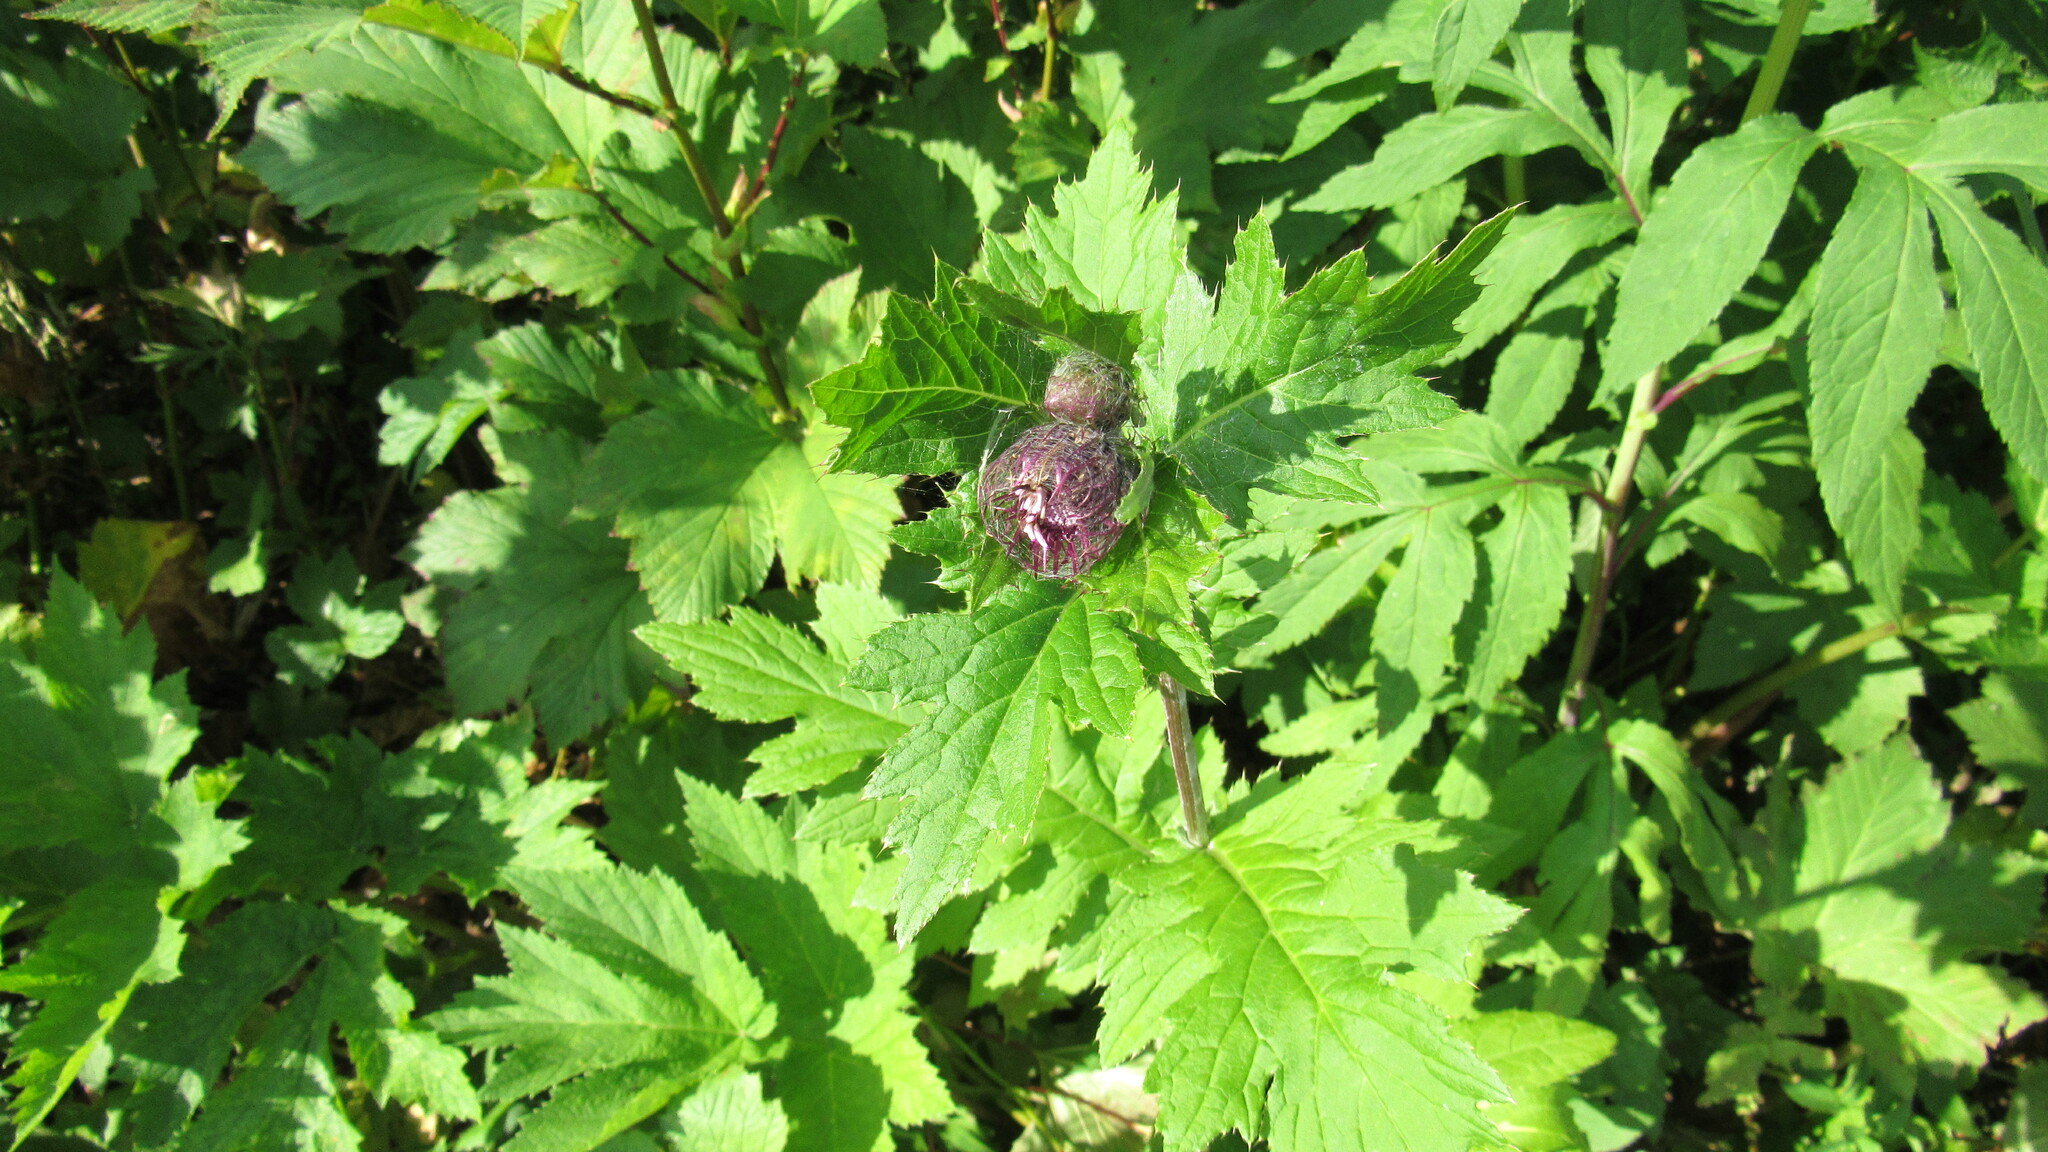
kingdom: Plantae
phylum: Tracheophyta
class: Magnoliopsida
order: Asterales
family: Asteraceae
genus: Cirsium
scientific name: Cirsium kamtschaticum
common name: Kamchatka thistle
